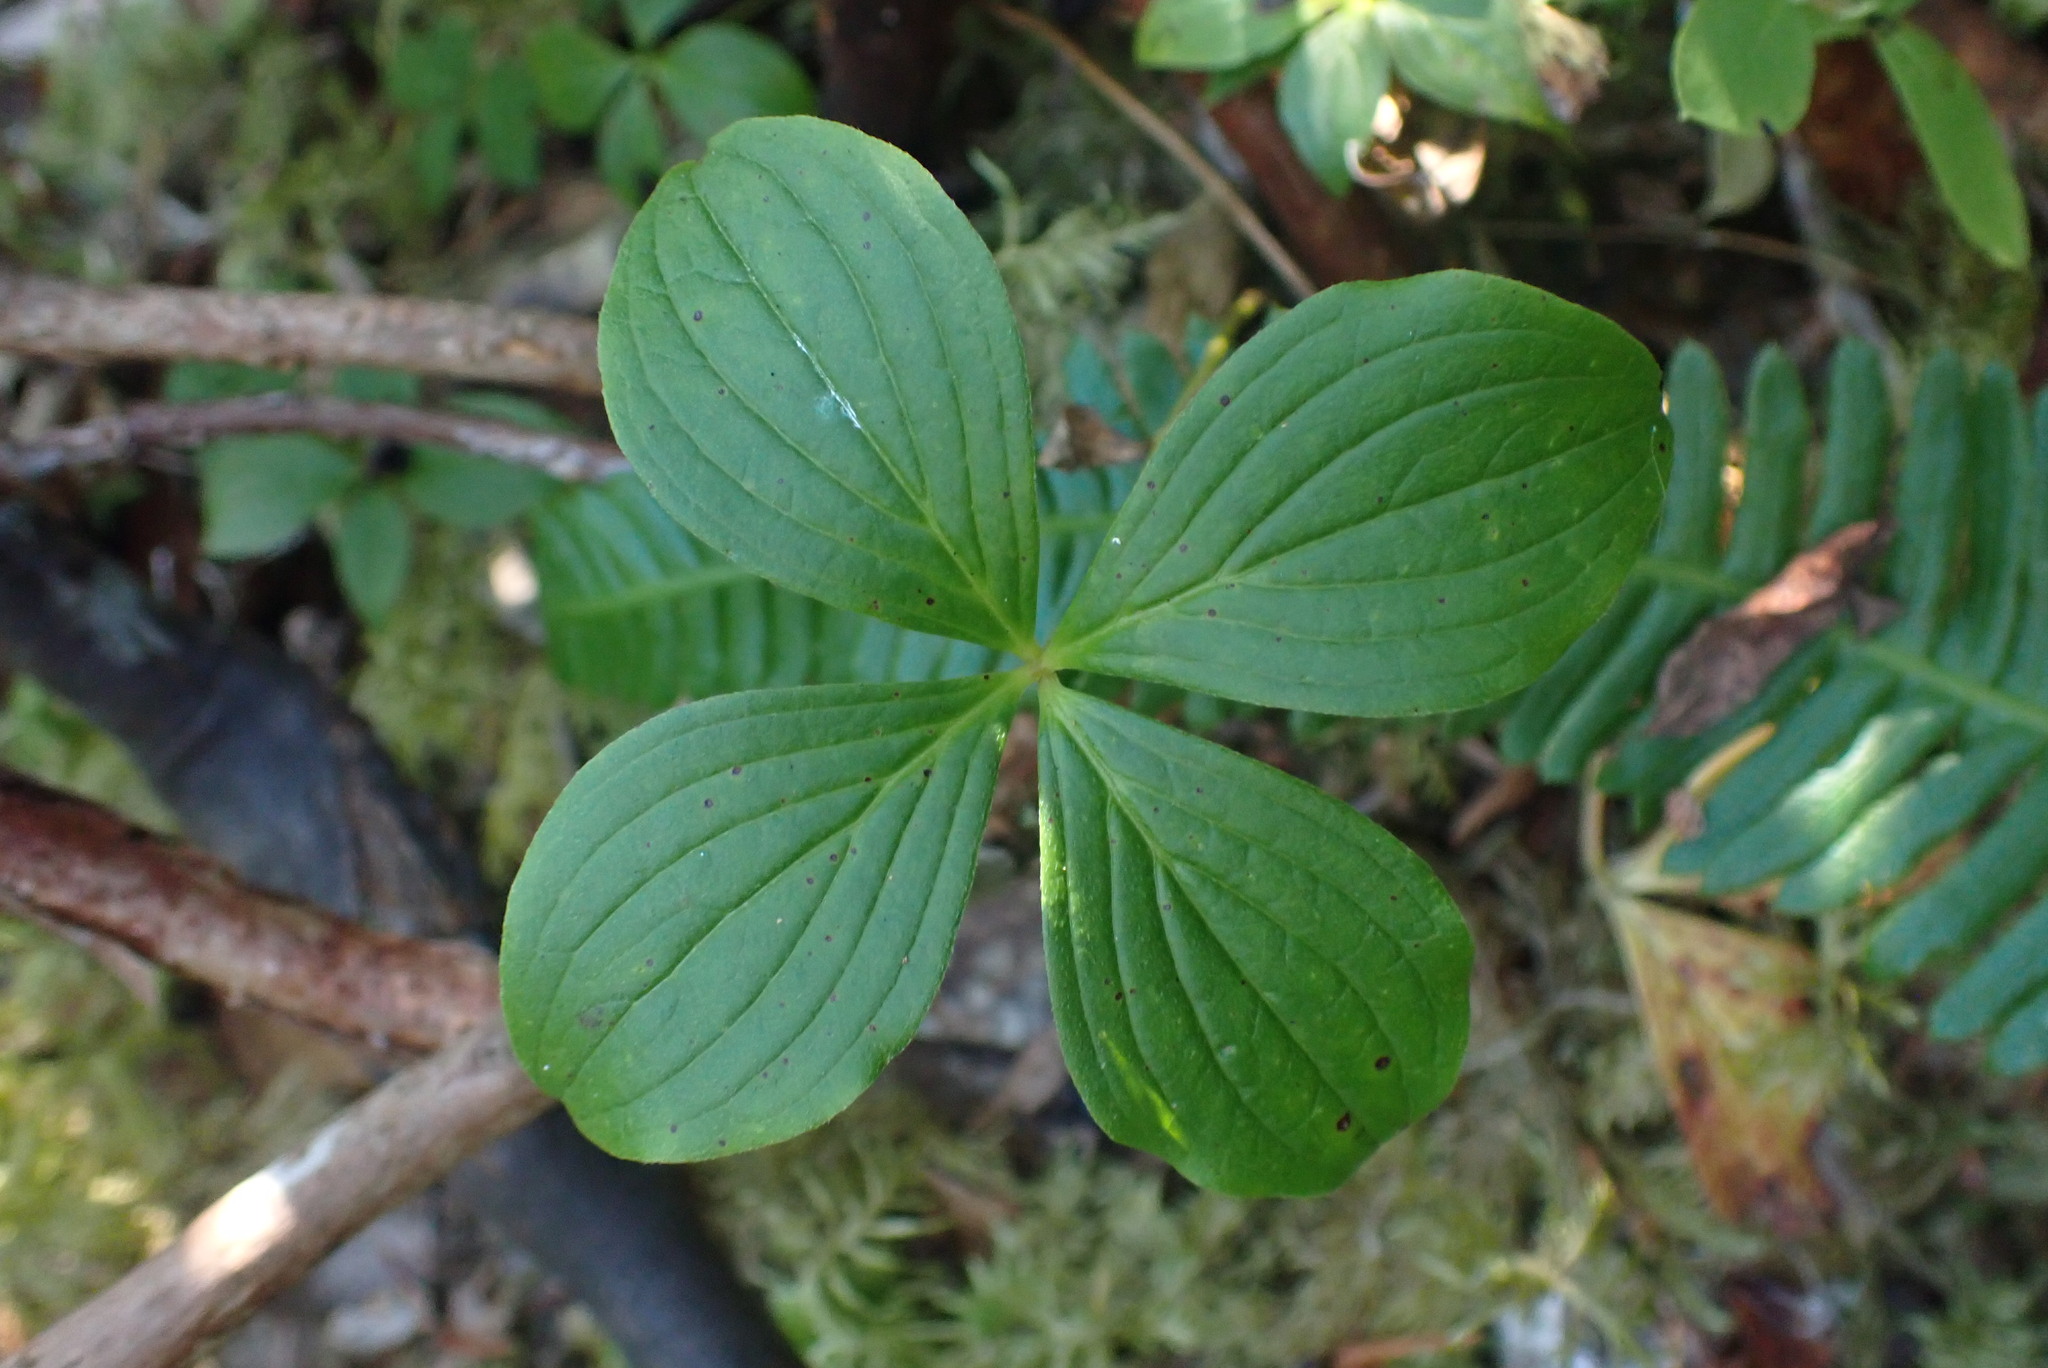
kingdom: Plantae
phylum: Tracheophyta
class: Magnoliopsida
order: Cornales
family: Cornaceae
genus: Cornus
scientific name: Cornus unalaschkensis
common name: Alaska bunchberry
